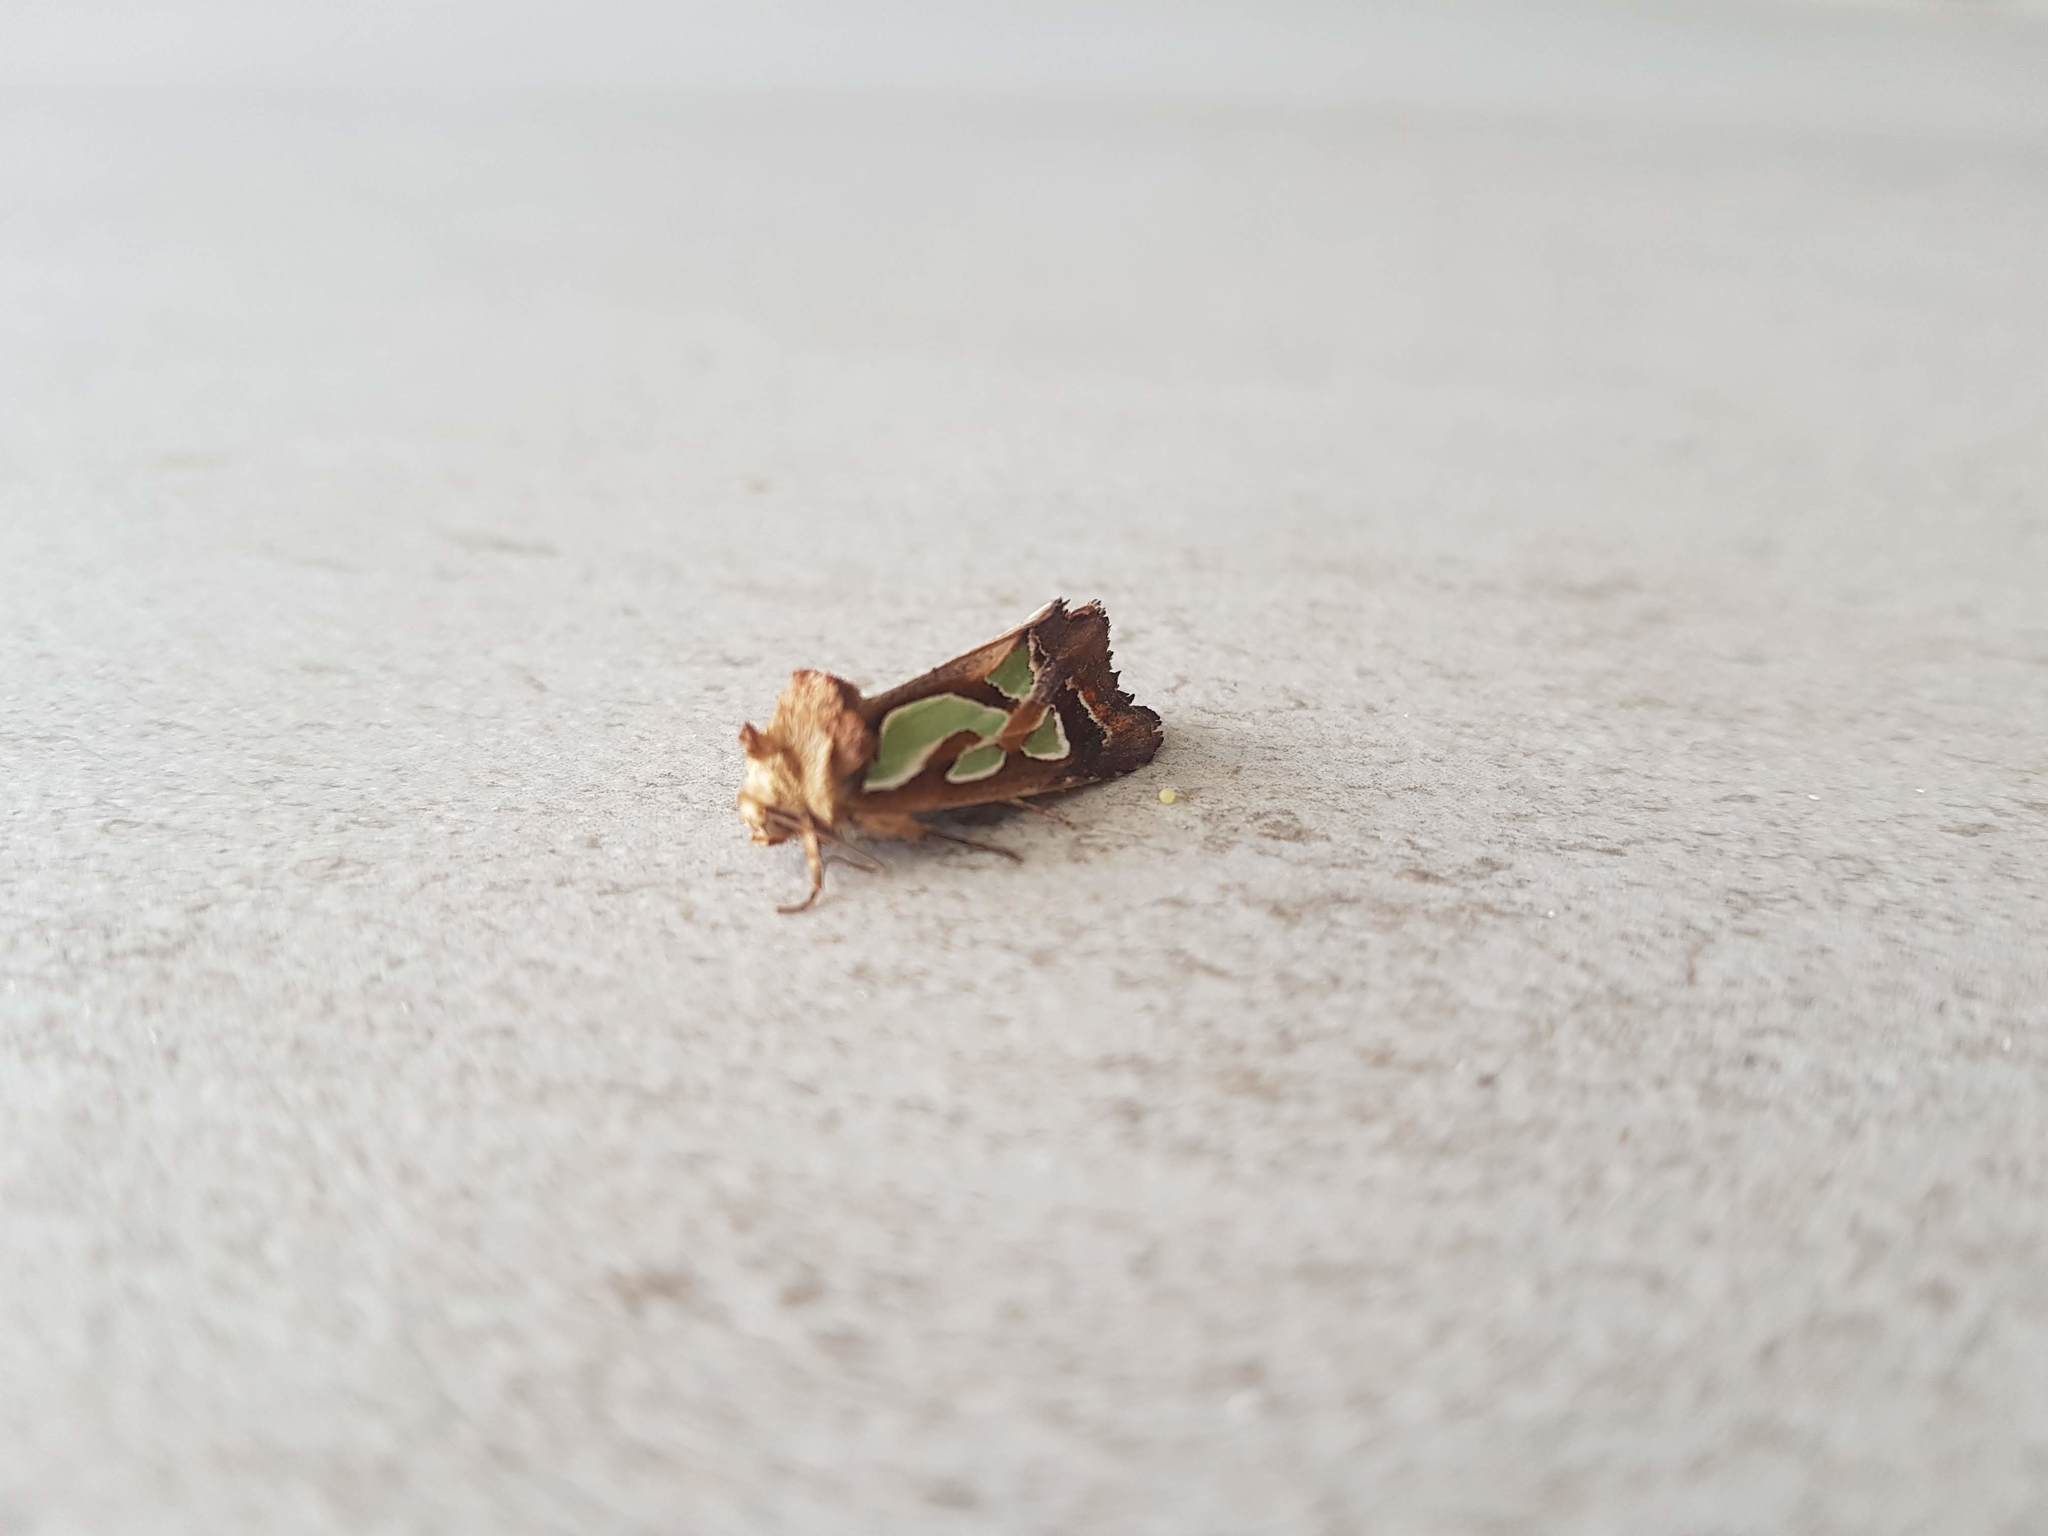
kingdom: Animalia
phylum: Arthropoda
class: Insecta
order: Lepidoptera
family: Noctuidae
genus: Cosmodes
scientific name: Cosmodes elegans
